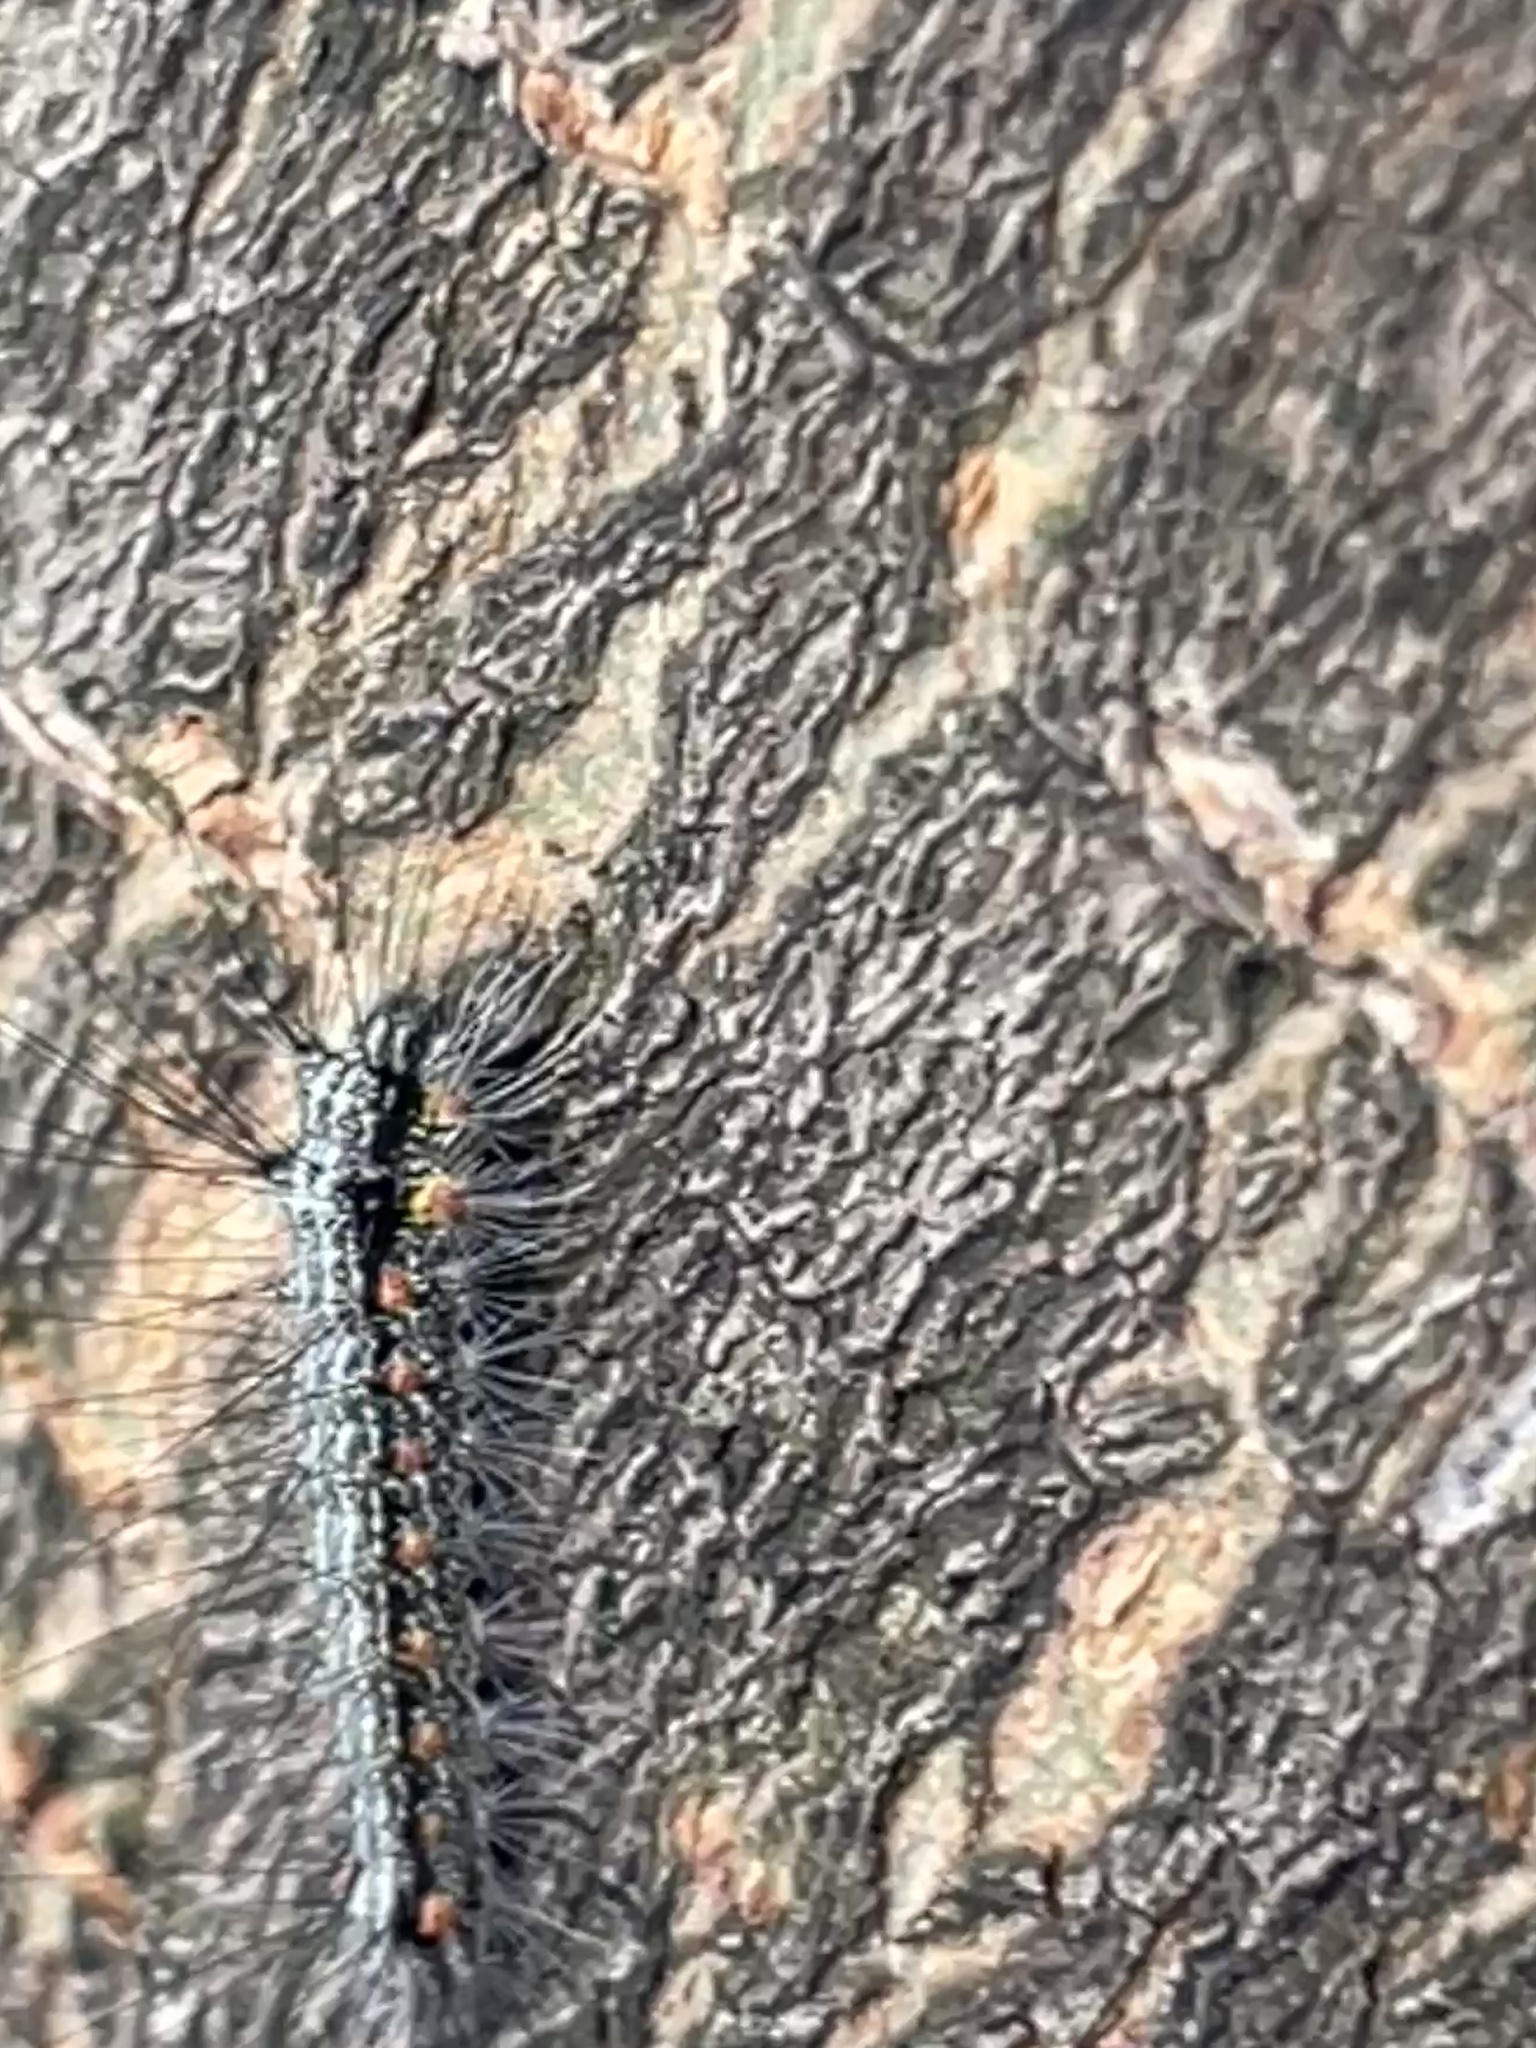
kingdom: Animalia
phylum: Arthropoda
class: Insecta
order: Lepidoptera
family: Erebidae
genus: Anestia
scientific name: Anestia
